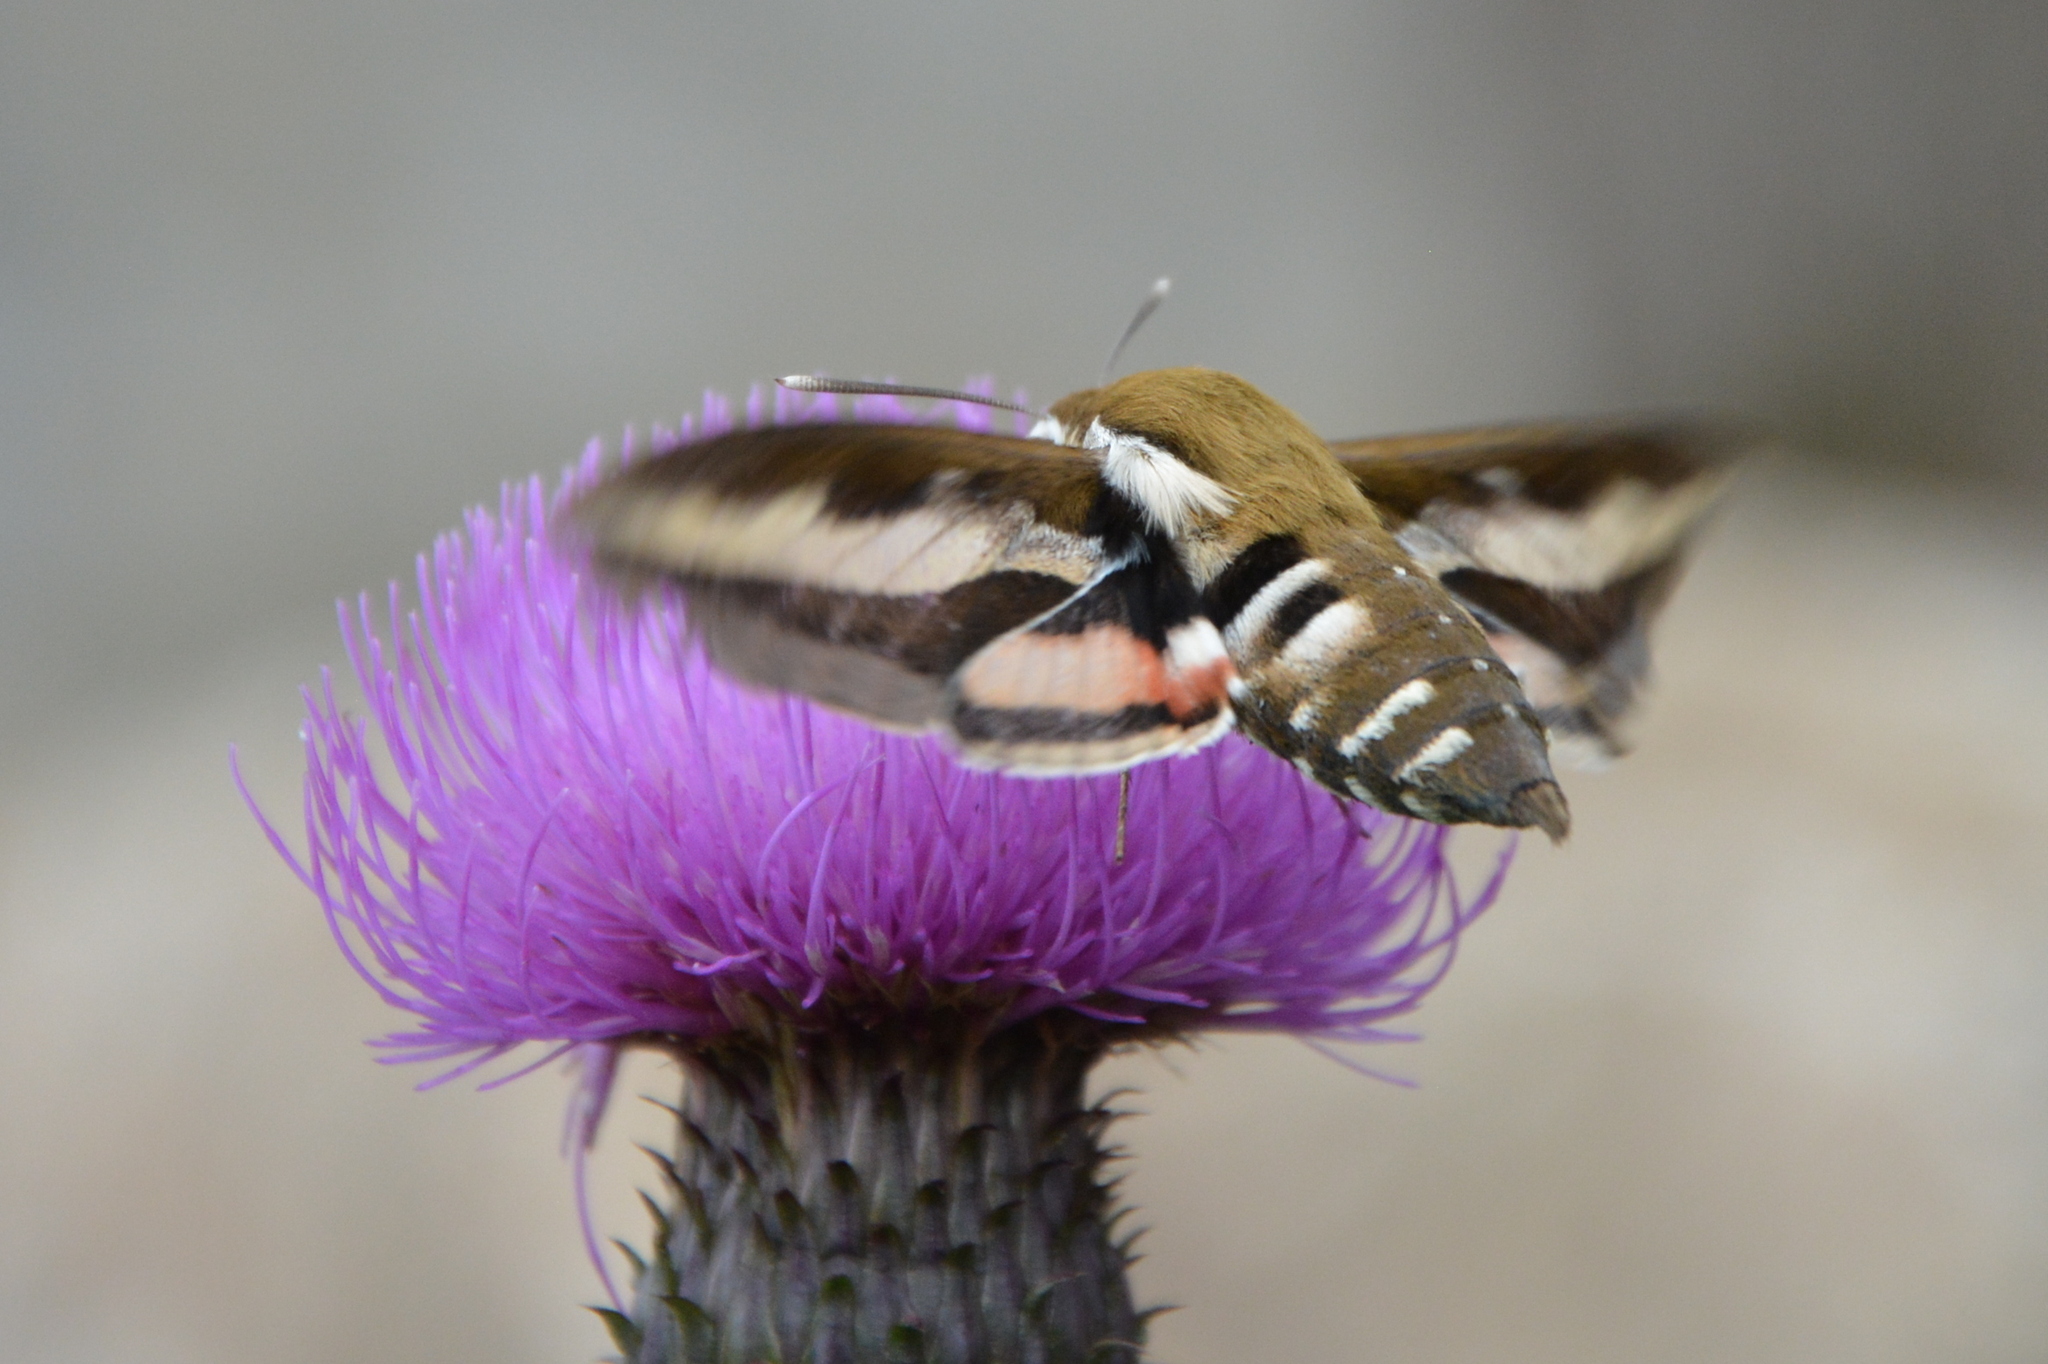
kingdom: Animalia
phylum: Arthropoda
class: Insecta
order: Lepidoptera
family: Sphingidae
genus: Hyles
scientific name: Hyles gallii
